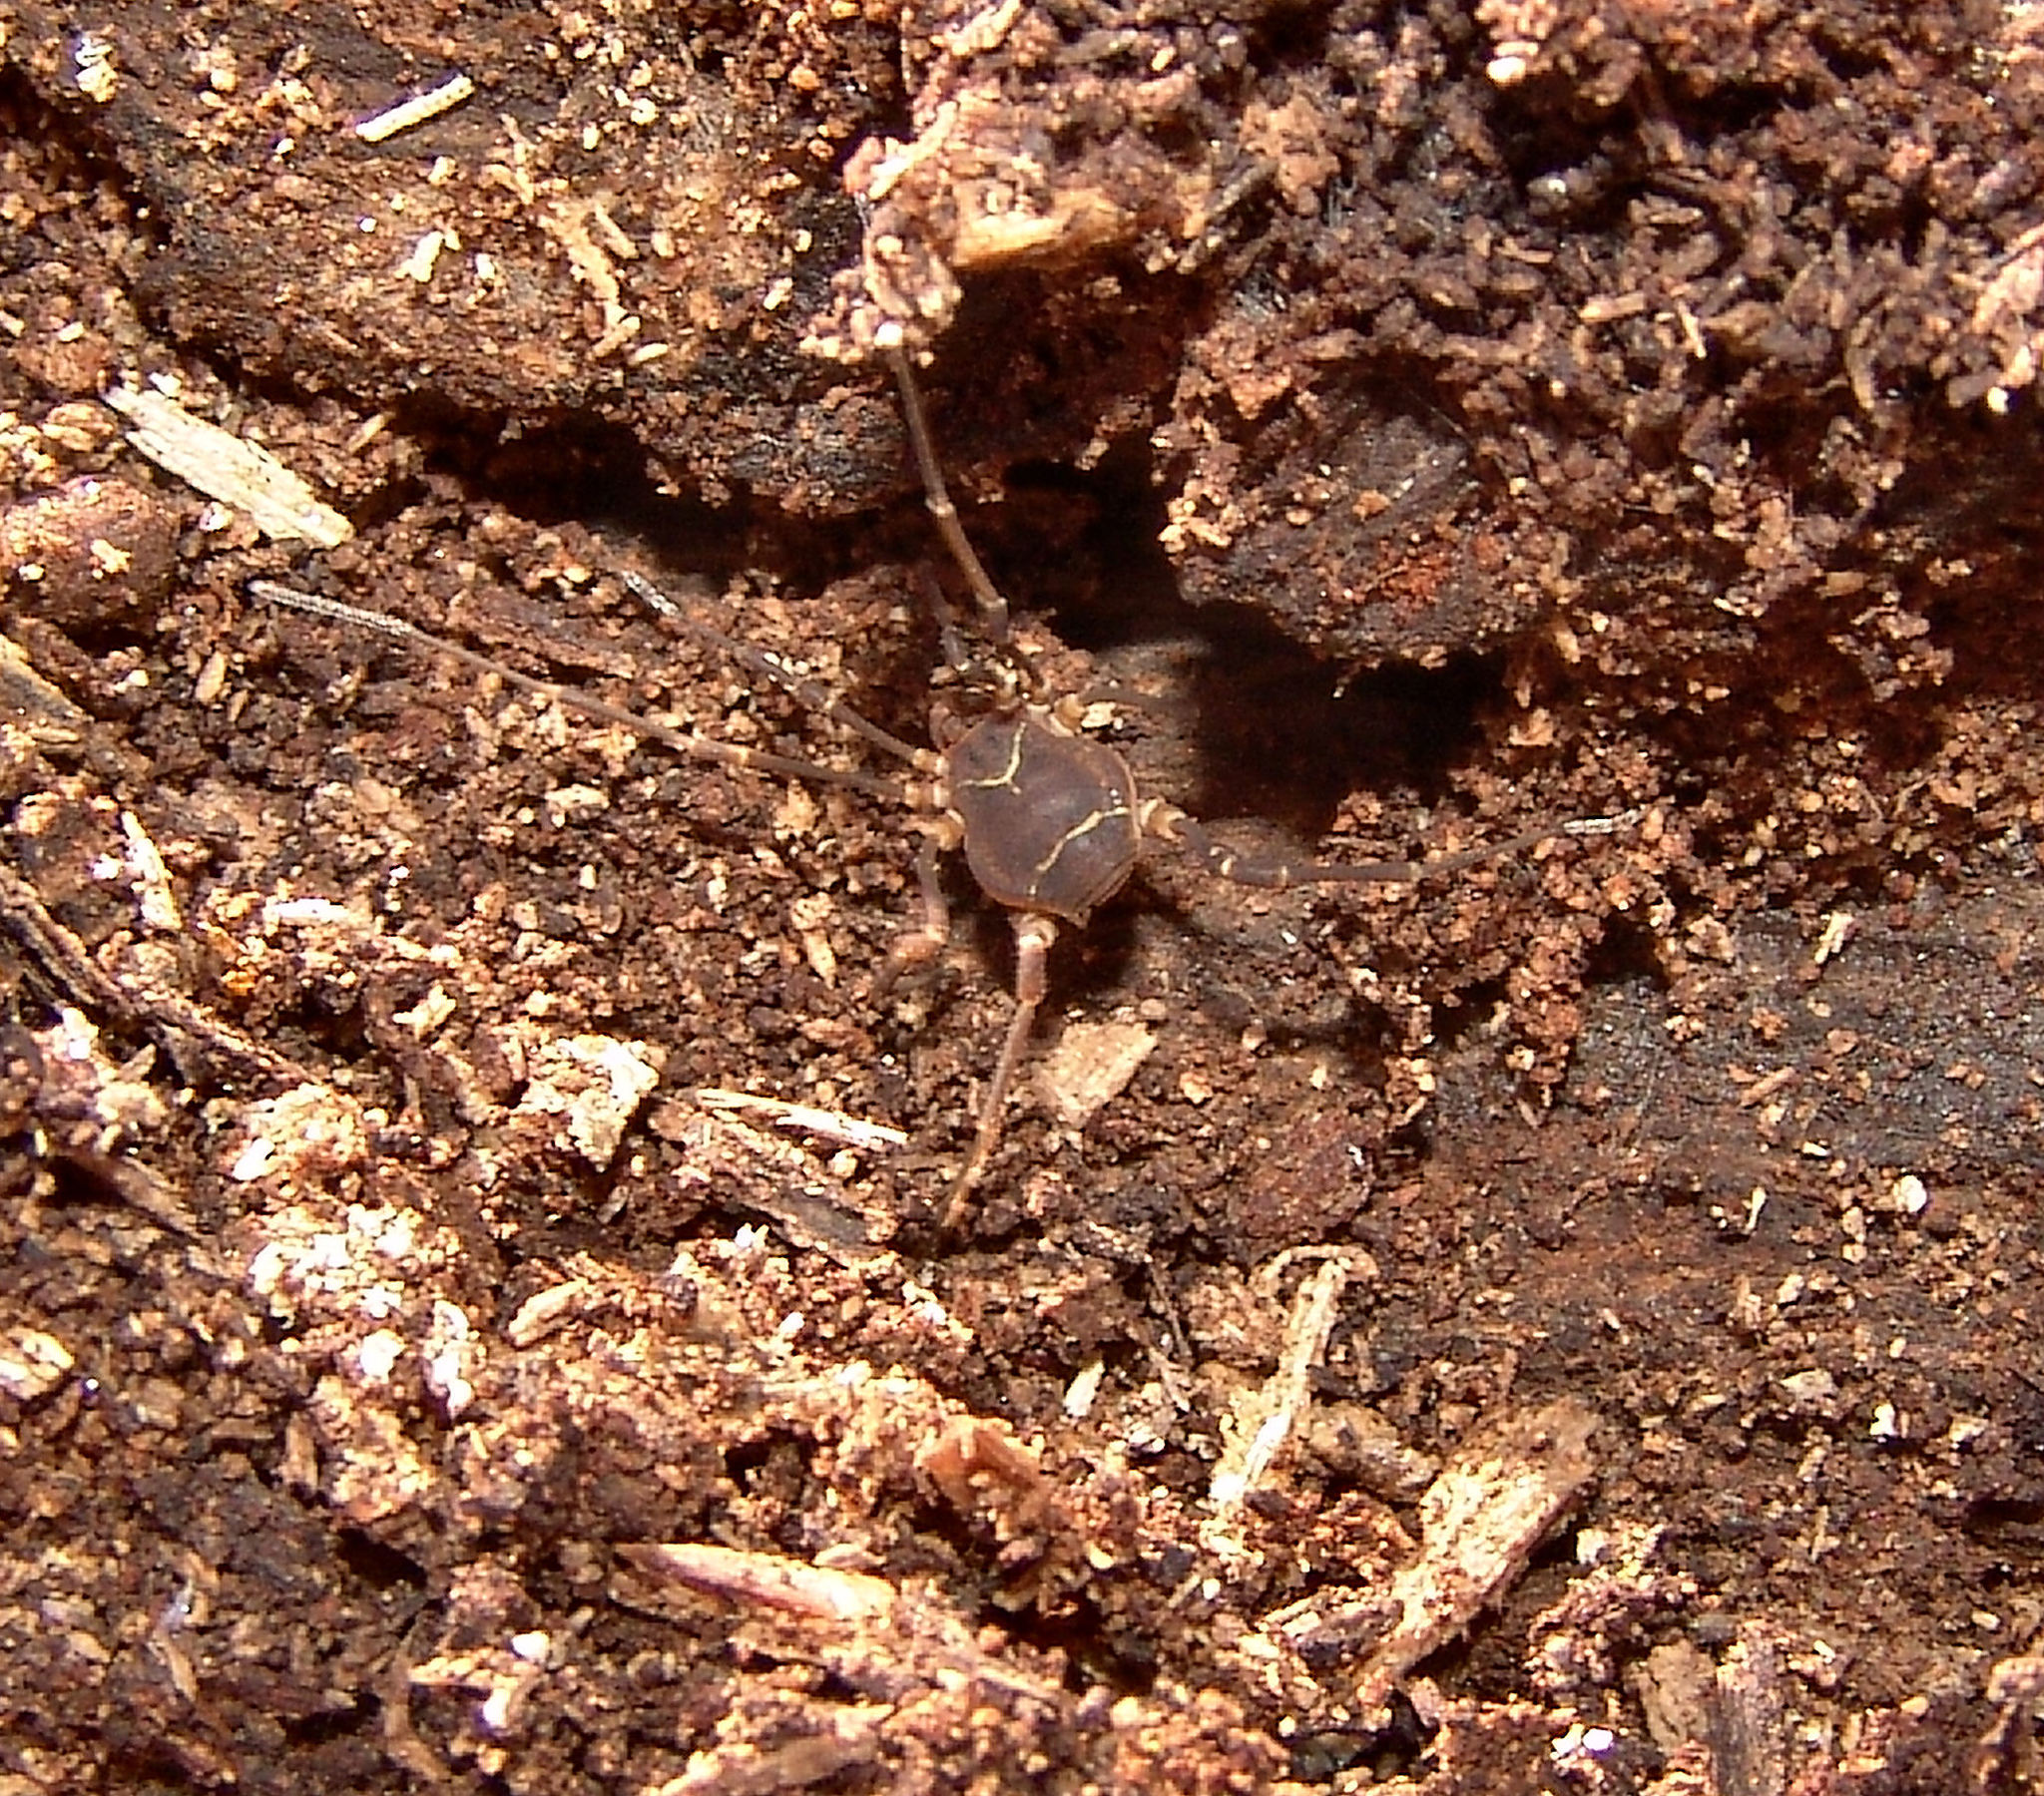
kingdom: Animalia
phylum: Arthropoda
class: Arachnida
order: Opiliones
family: Cosmetidae
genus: Libitioides
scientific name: Libitioides sayi
